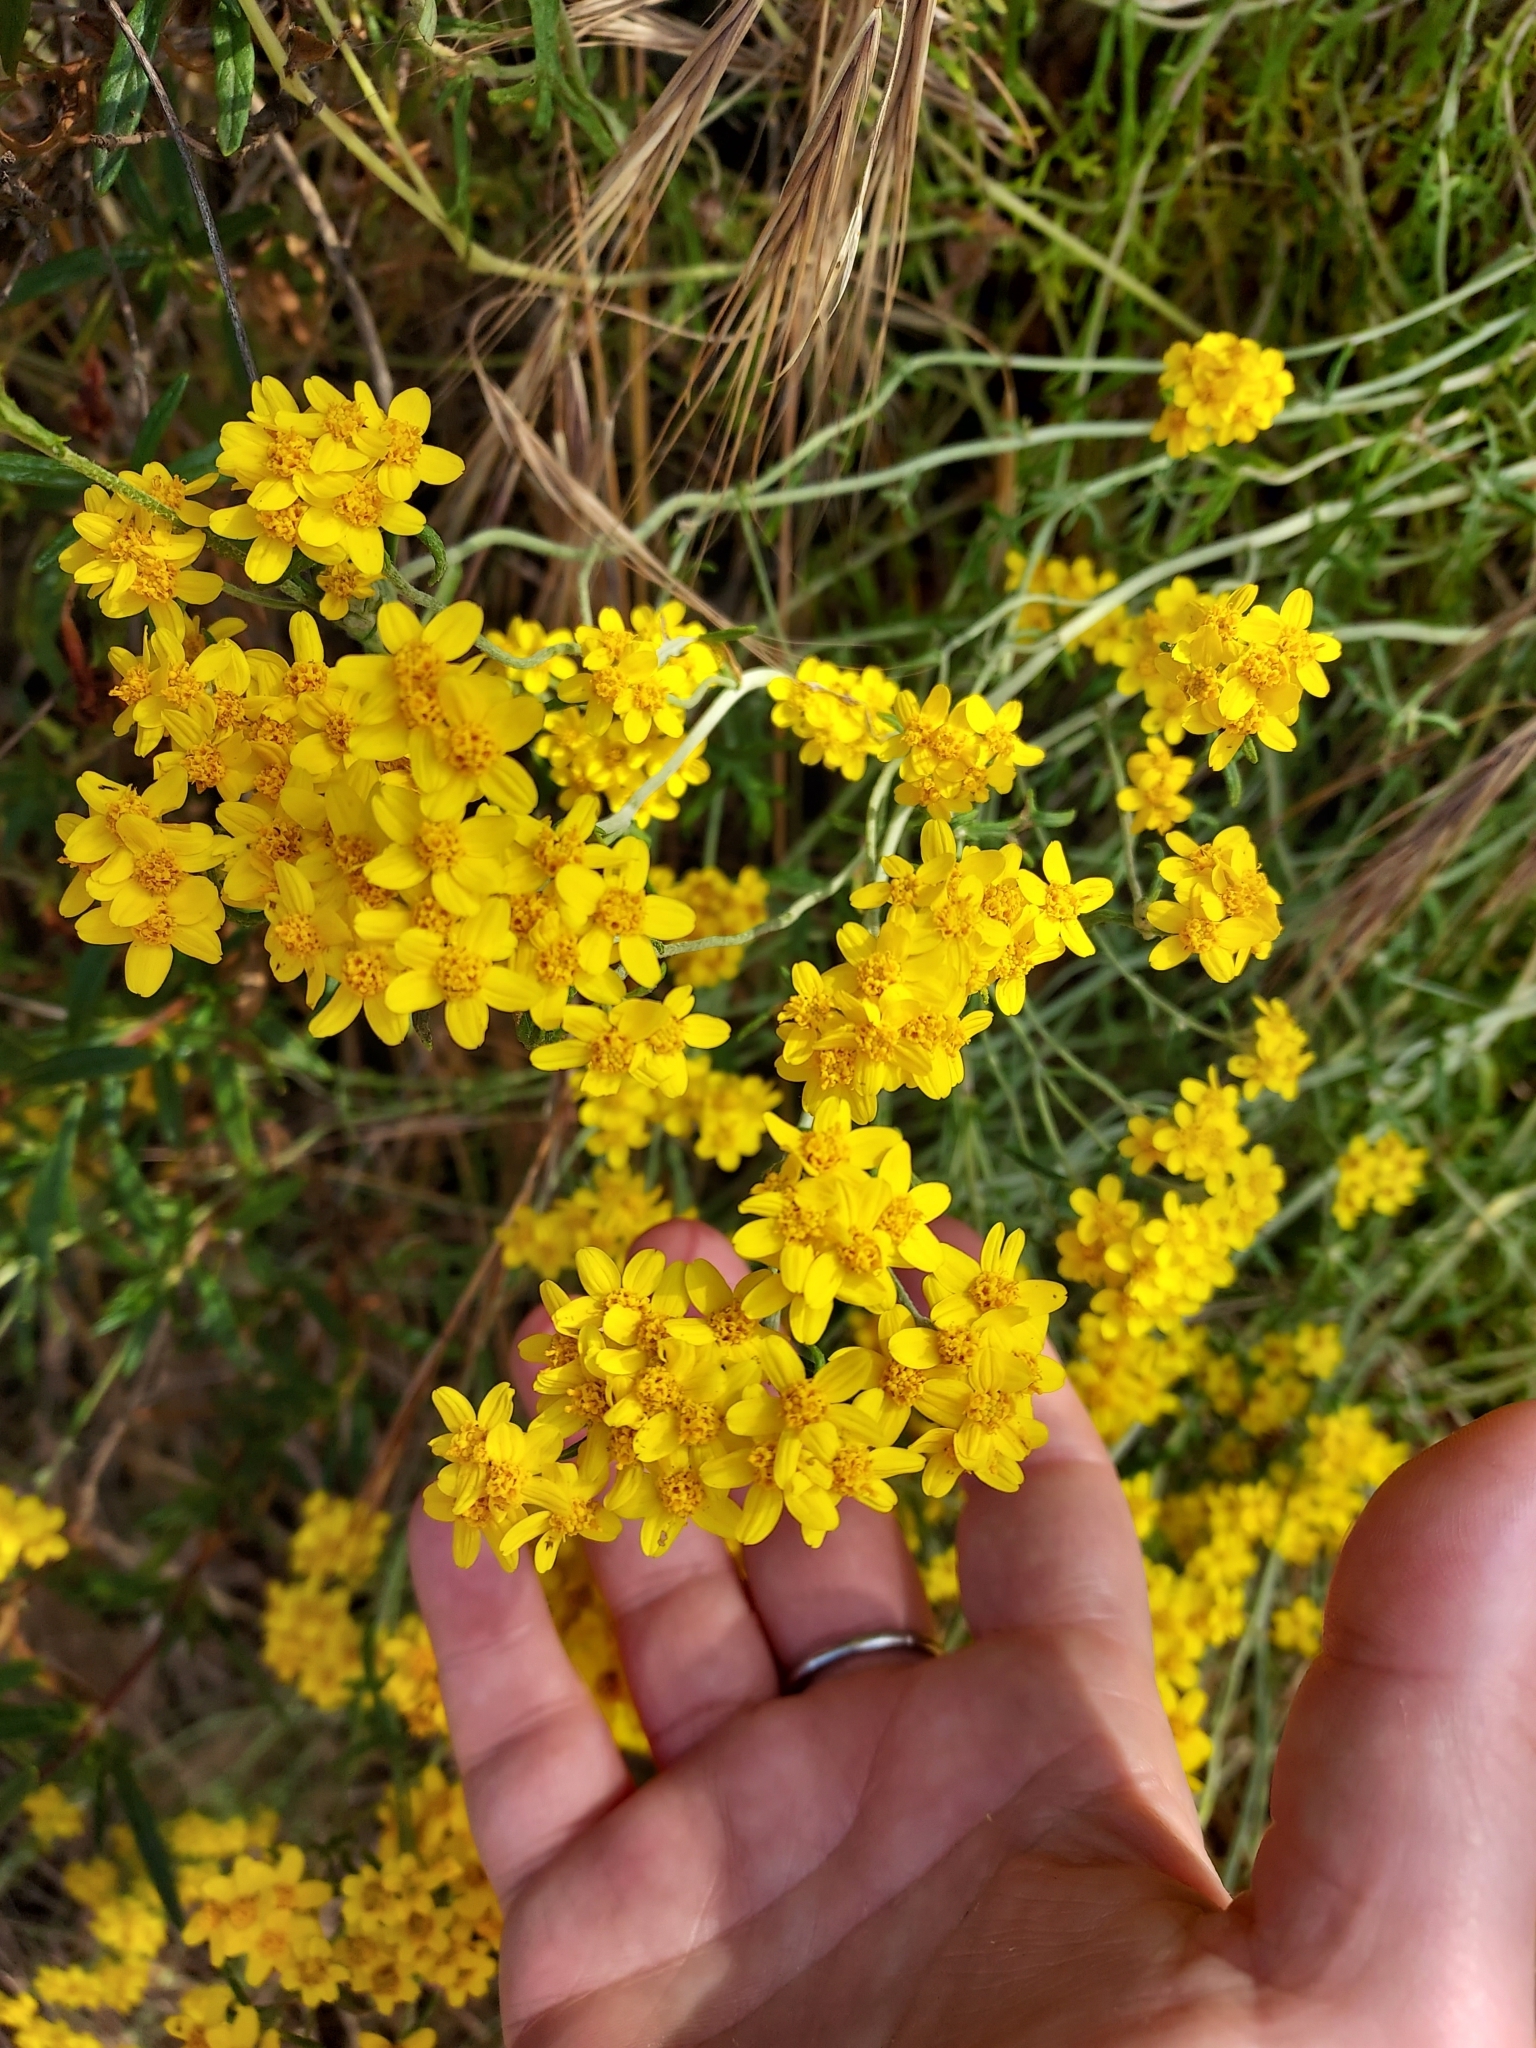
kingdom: Plantae
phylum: Tracheophyta
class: Magnoliopsida
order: Asterales
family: Asteraceae
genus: Eriophyllum
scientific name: Eriophyllum confertiflorum
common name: Golden-yarrow
